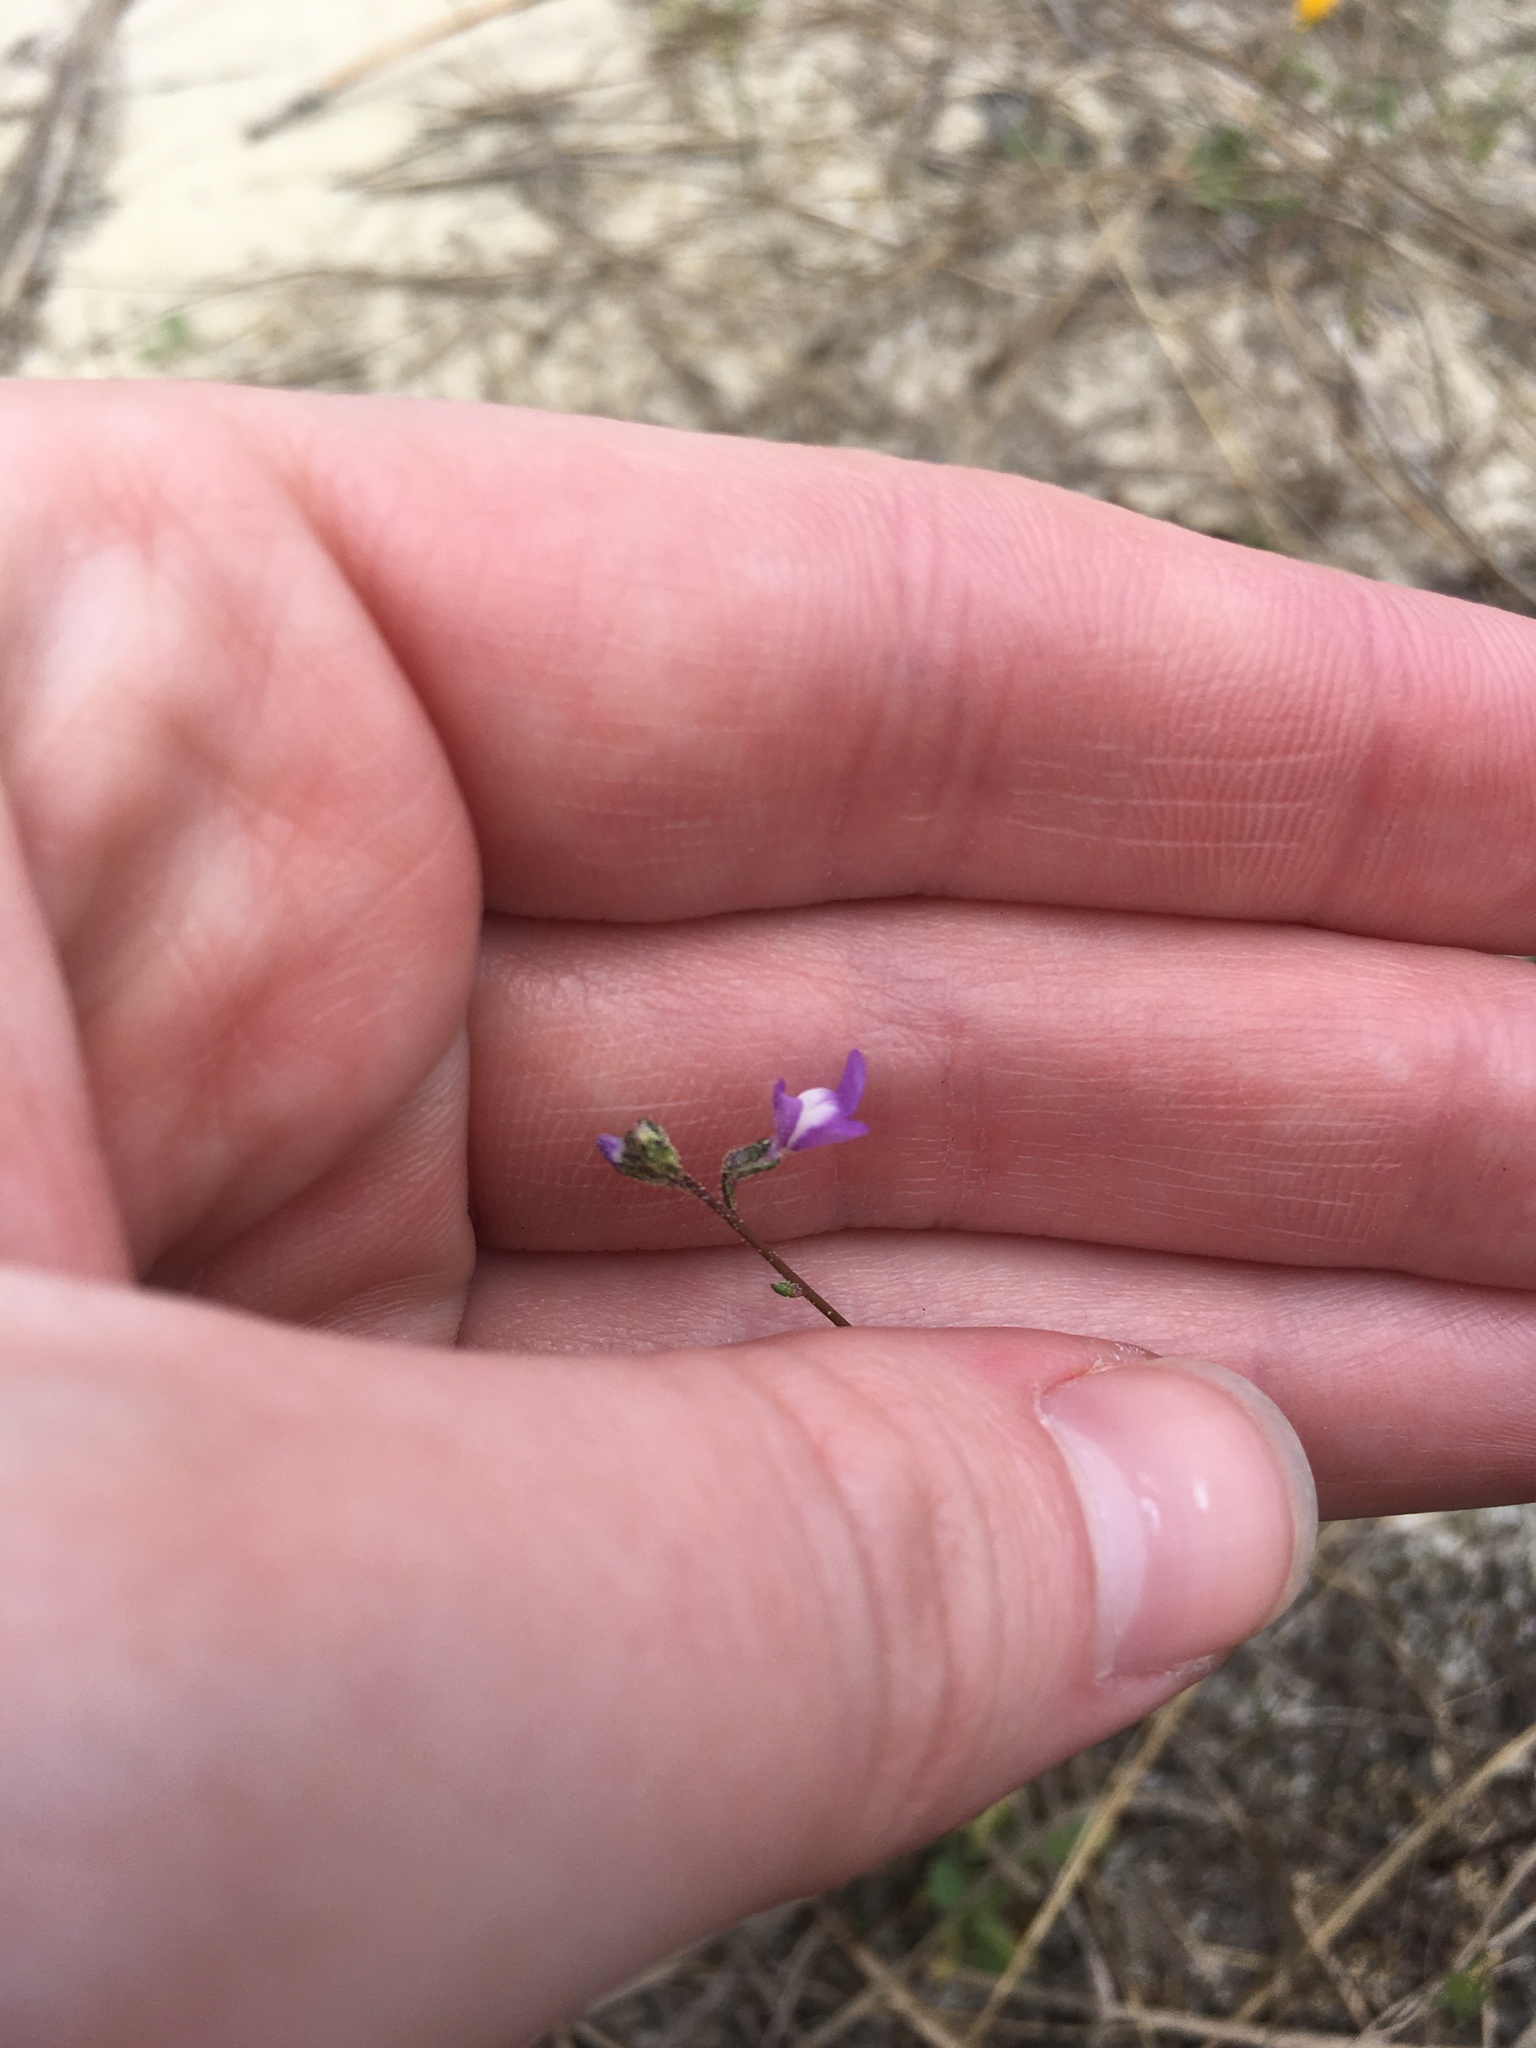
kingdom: Plantae
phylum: Tracheophyta
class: Magnoliopsida
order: Lamiales
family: Plantaginaceae
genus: Nuttallanthus
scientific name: Nuttallanthus canadensis
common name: Blue toadflax
